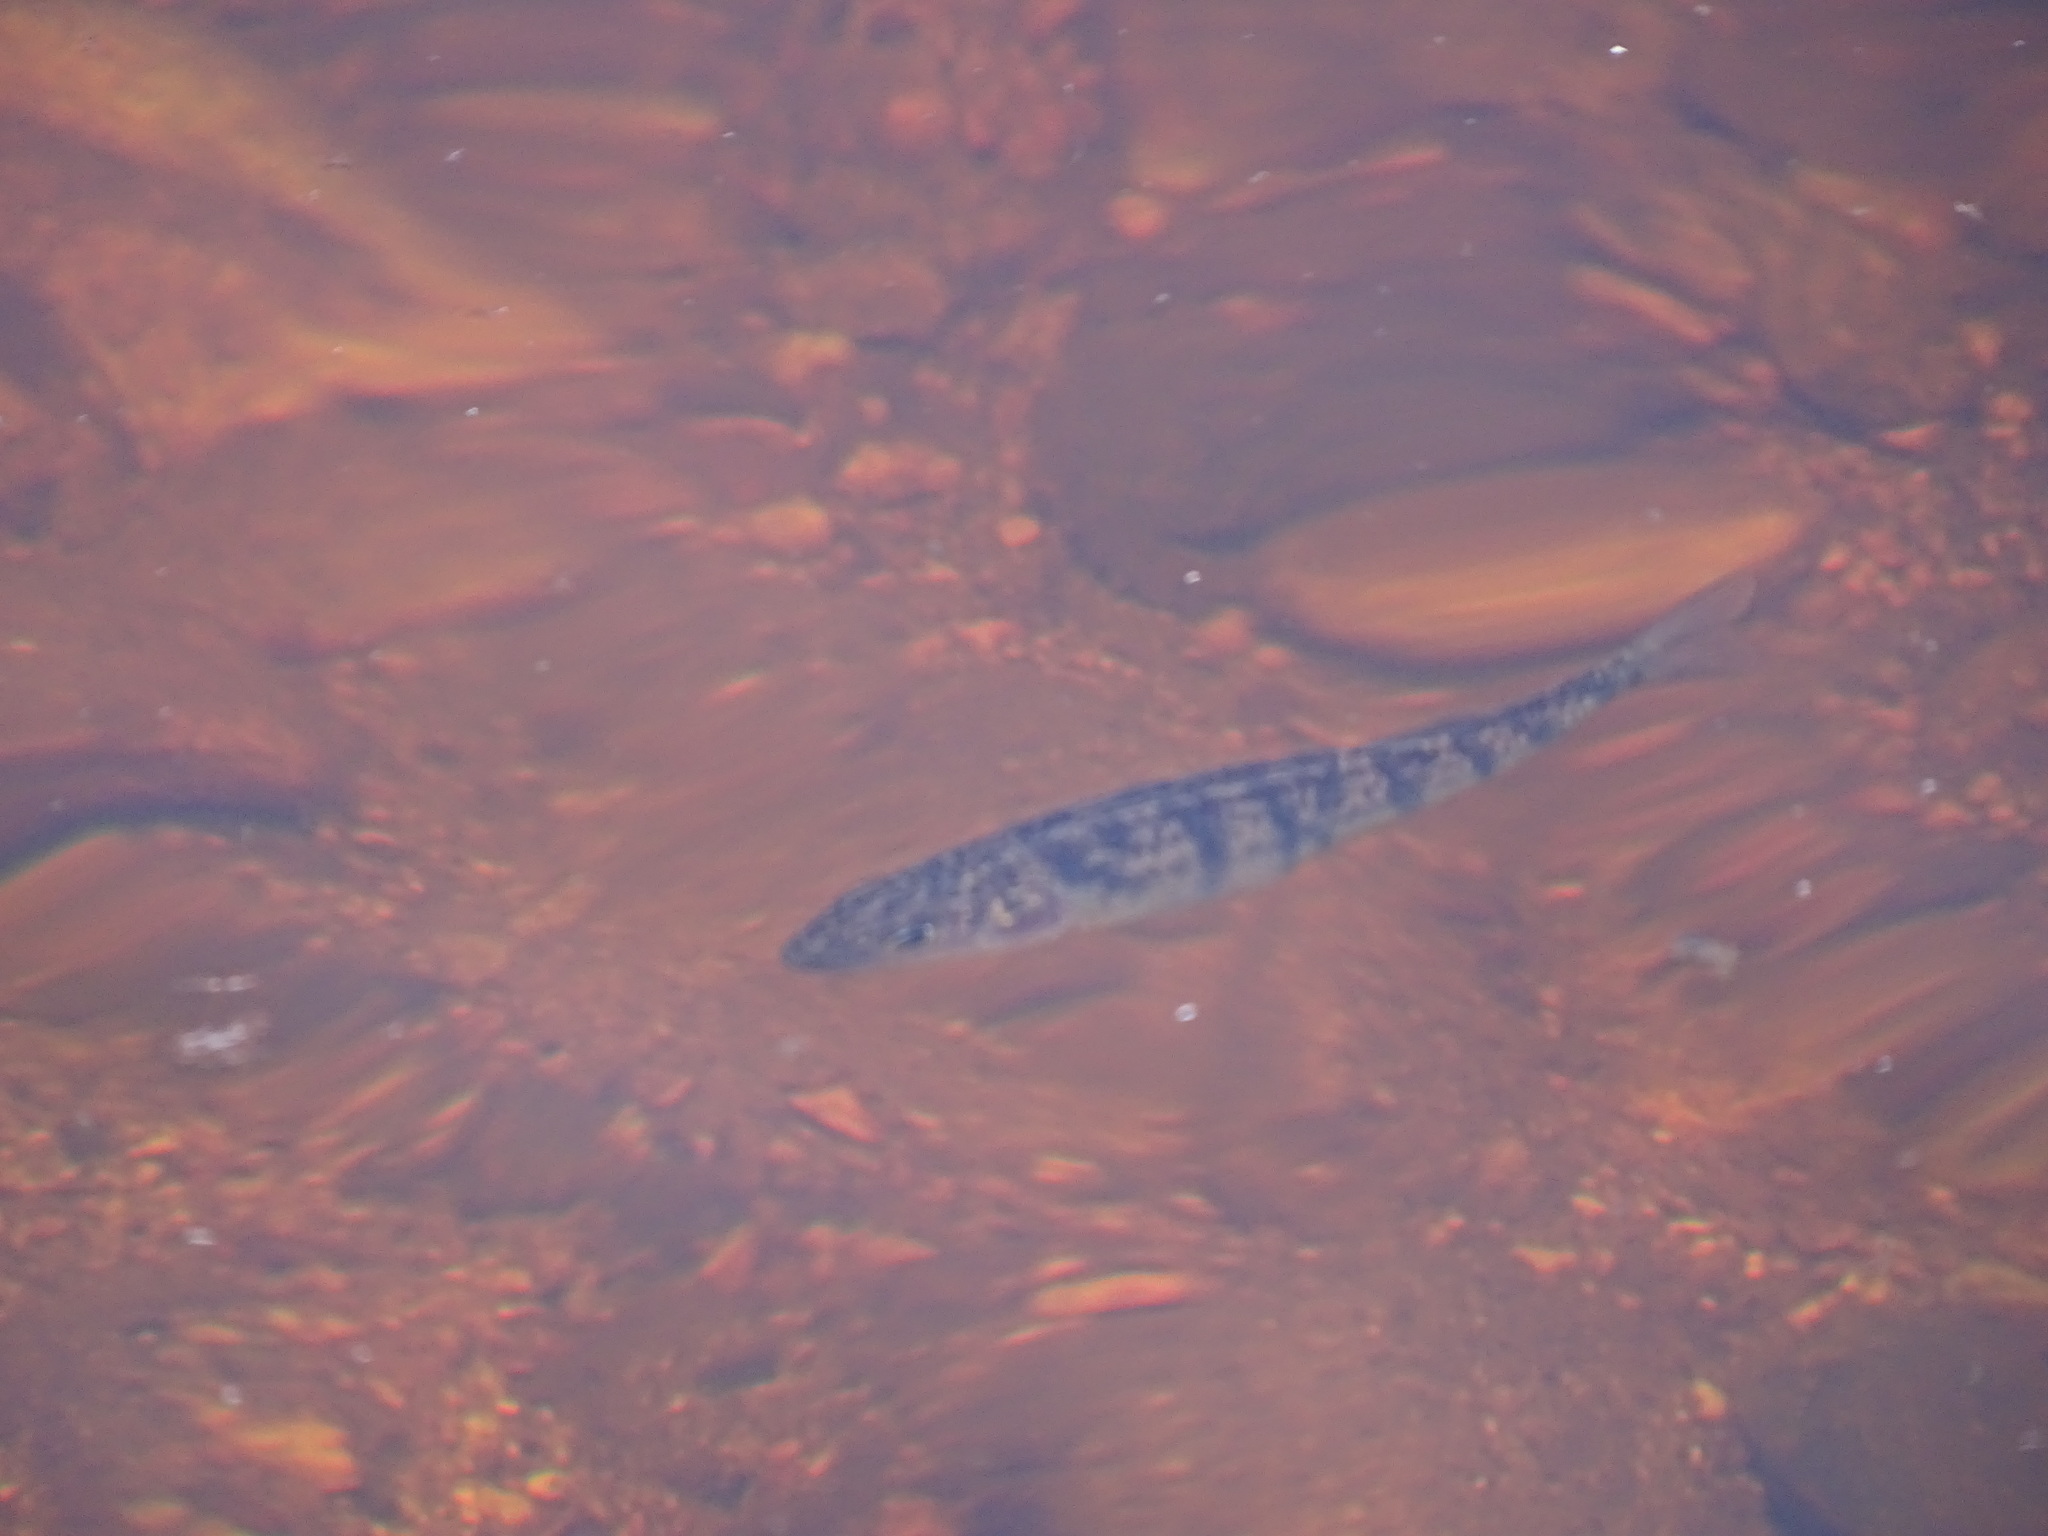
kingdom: Animalia
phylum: Chordata
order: Perciformes
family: Percidae
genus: Perca
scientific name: Perca flavescens
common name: Yellow perch
